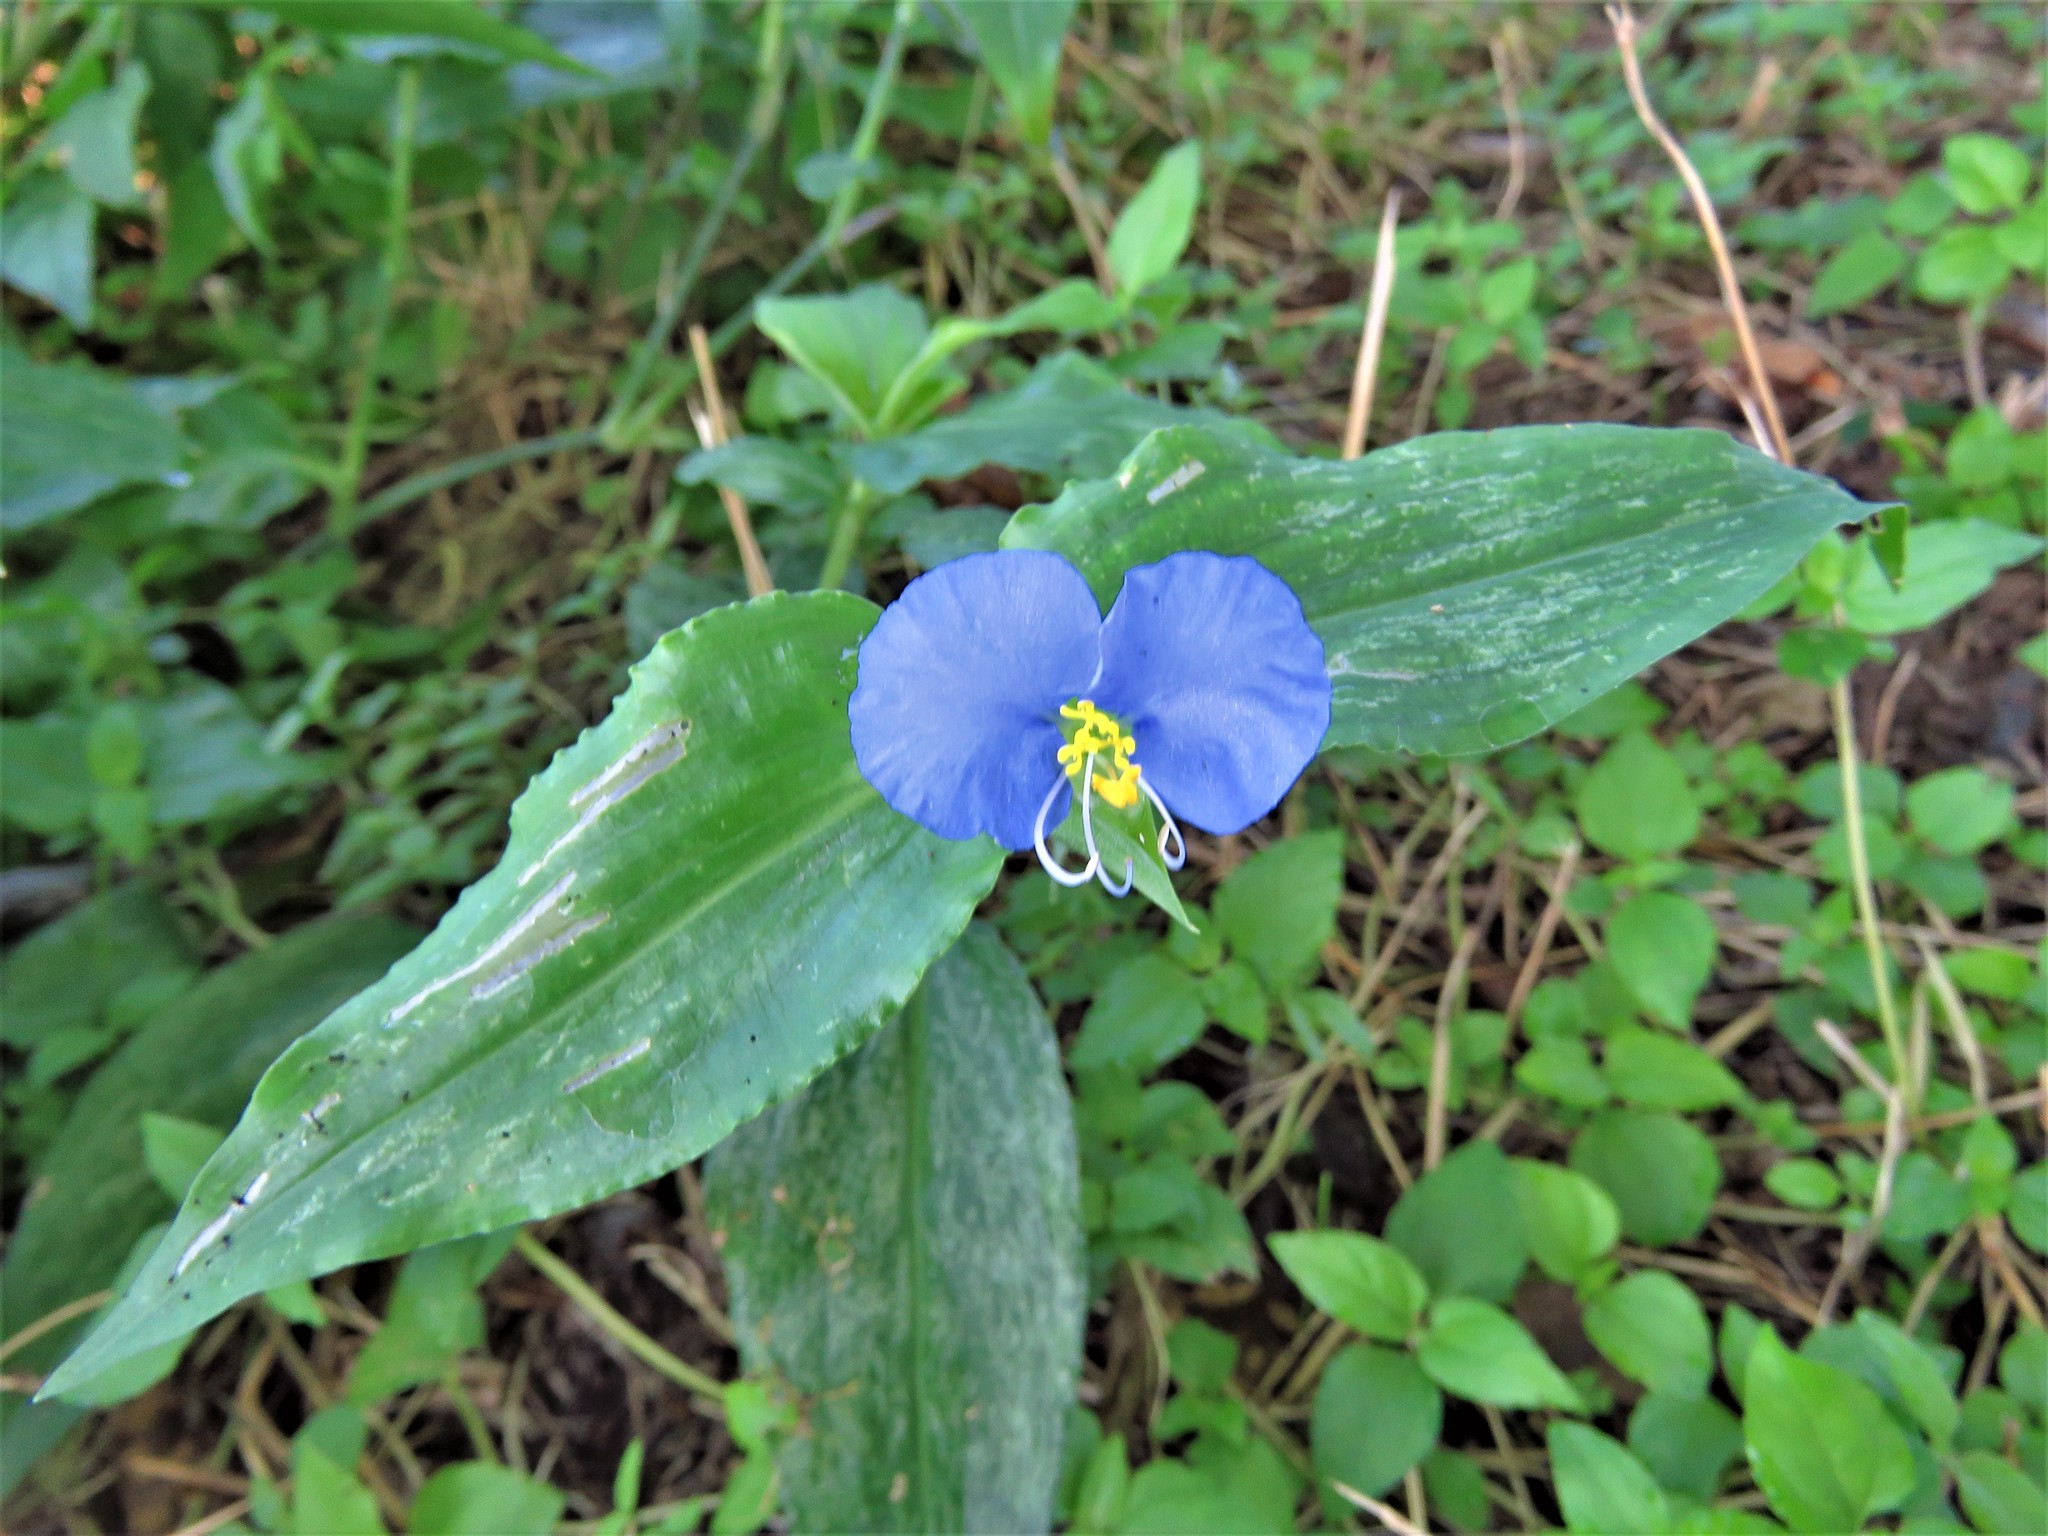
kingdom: Plantae
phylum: Tracheophyta
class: Liliopsida
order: Commelinales
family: Commelinaceae
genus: Commelina
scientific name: Commelina erecta
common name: Blousel blommetjie
